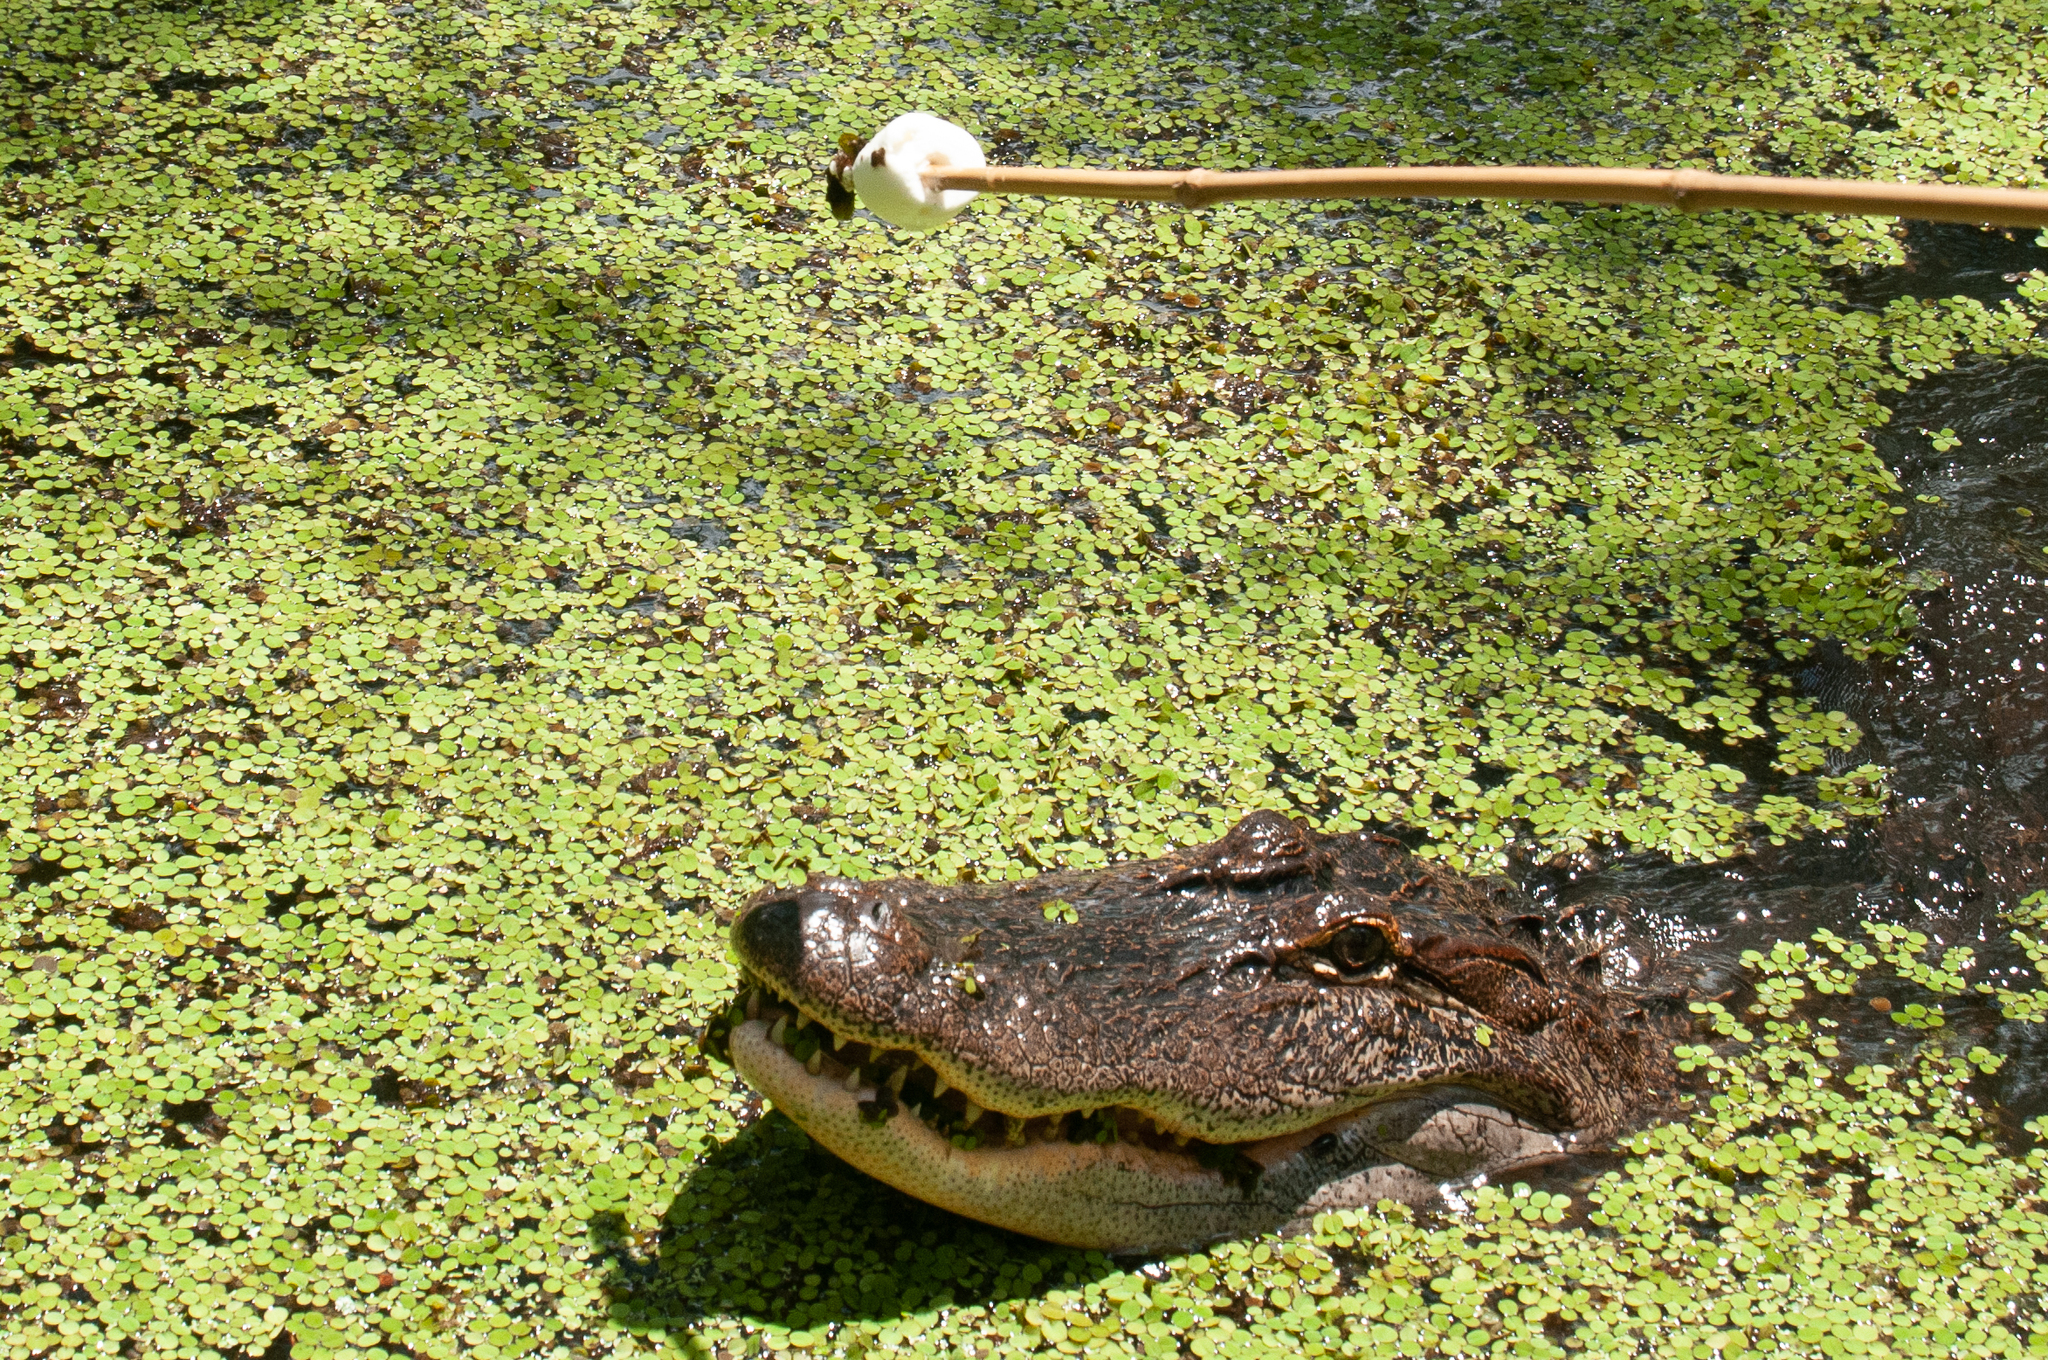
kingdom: Animalia
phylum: Chordata
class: Crocodylia
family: Alligatoridae
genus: Alligator
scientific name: Alligator mississippiensis
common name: American alligator
